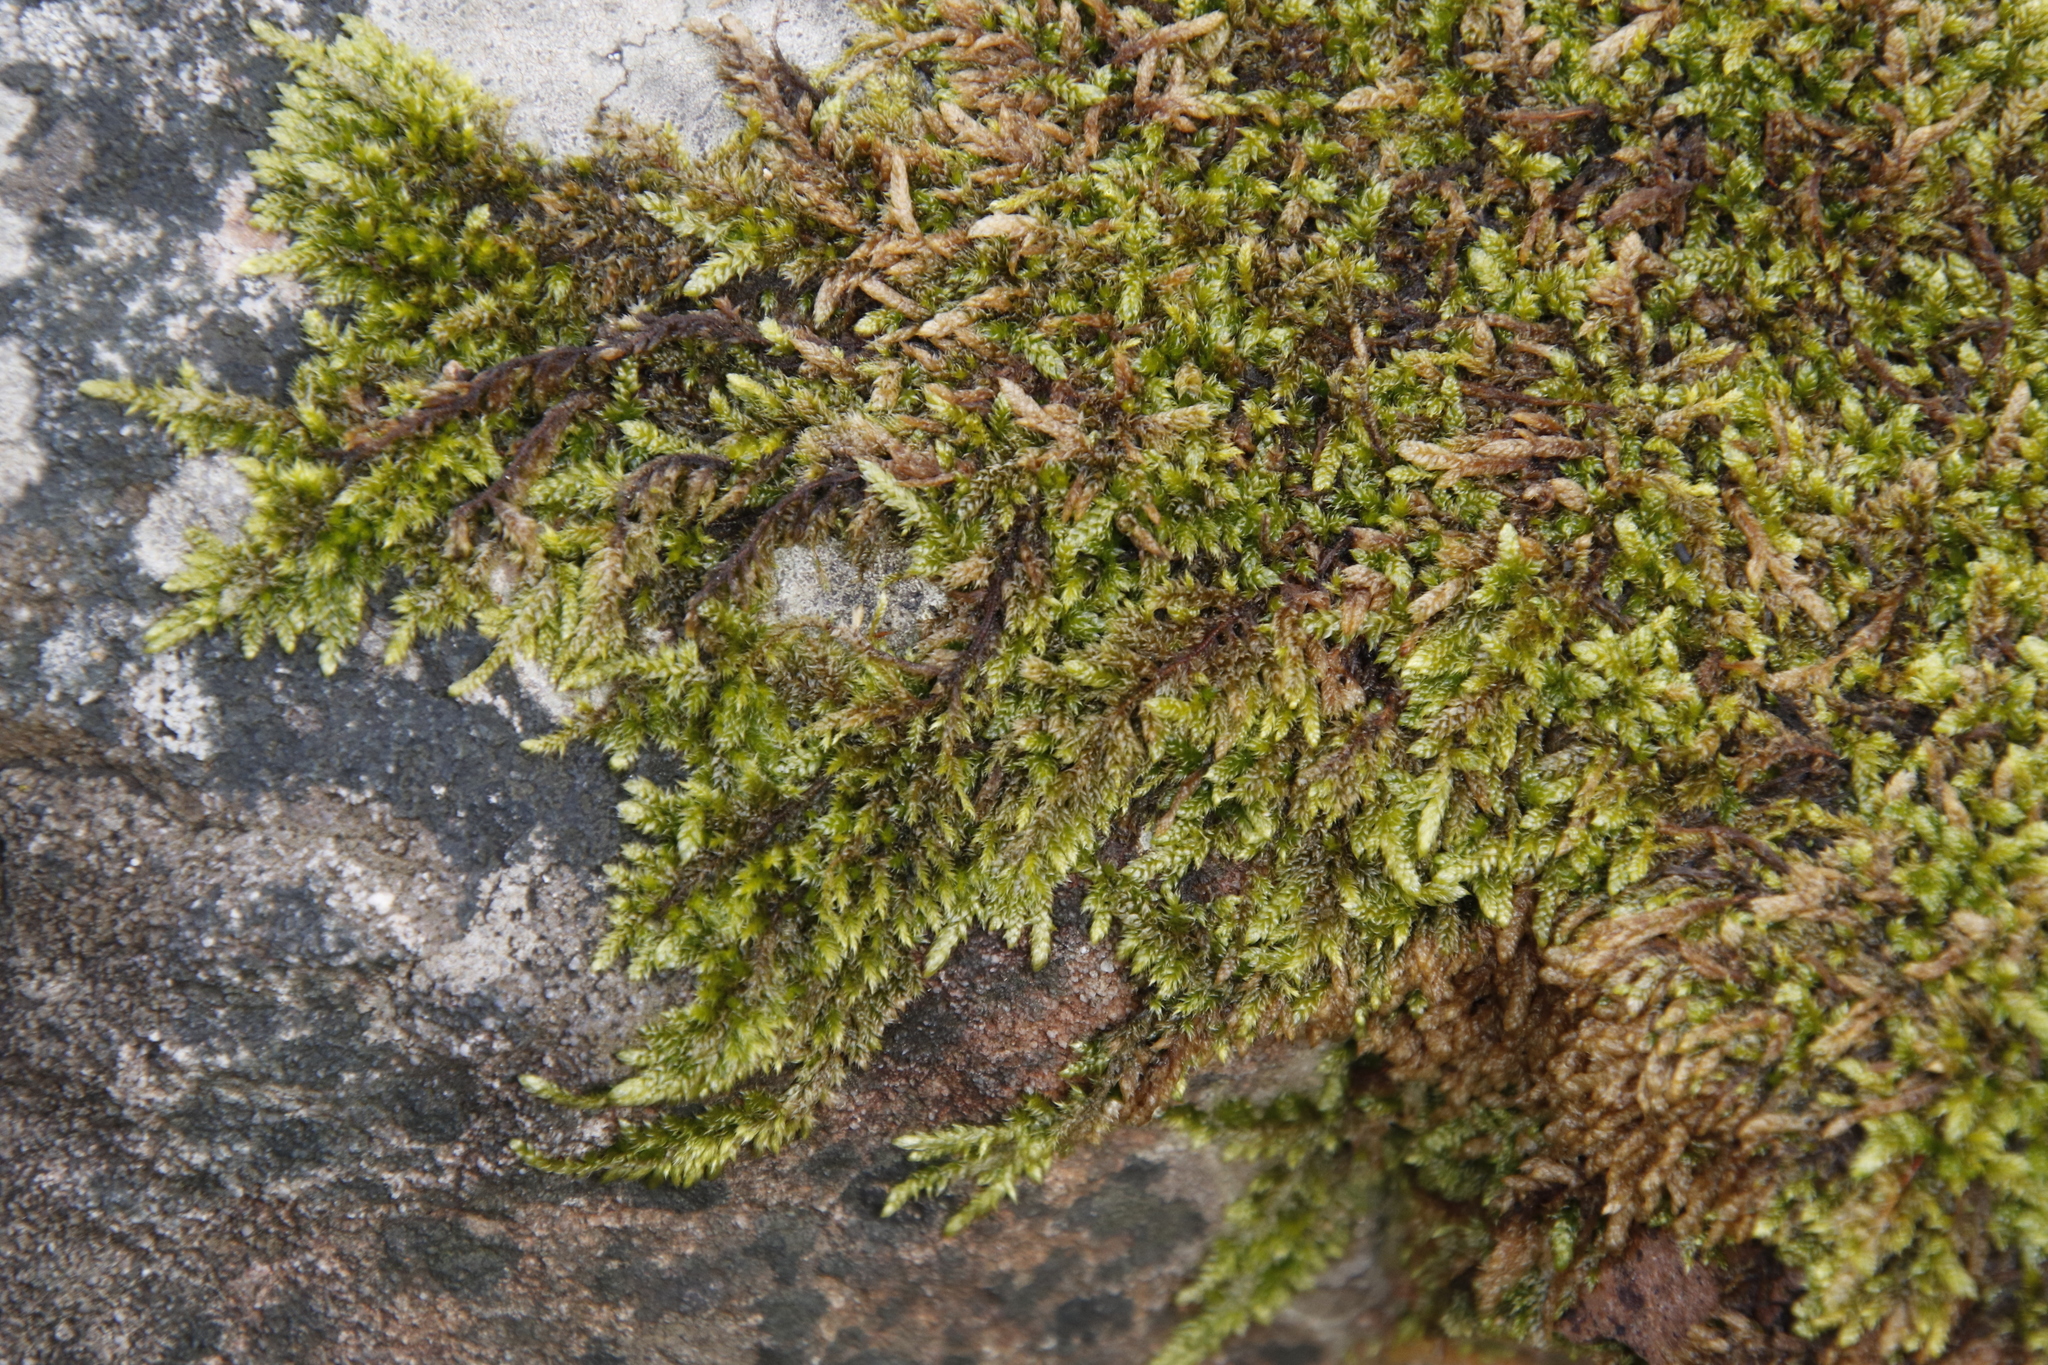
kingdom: Plantae
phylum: Bryophyta
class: Bryopsida
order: Hypnales
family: Hypnaceae
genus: Hypnum
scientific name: Hypnum cupressiforme
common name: Cypress-leaved plait-moss
